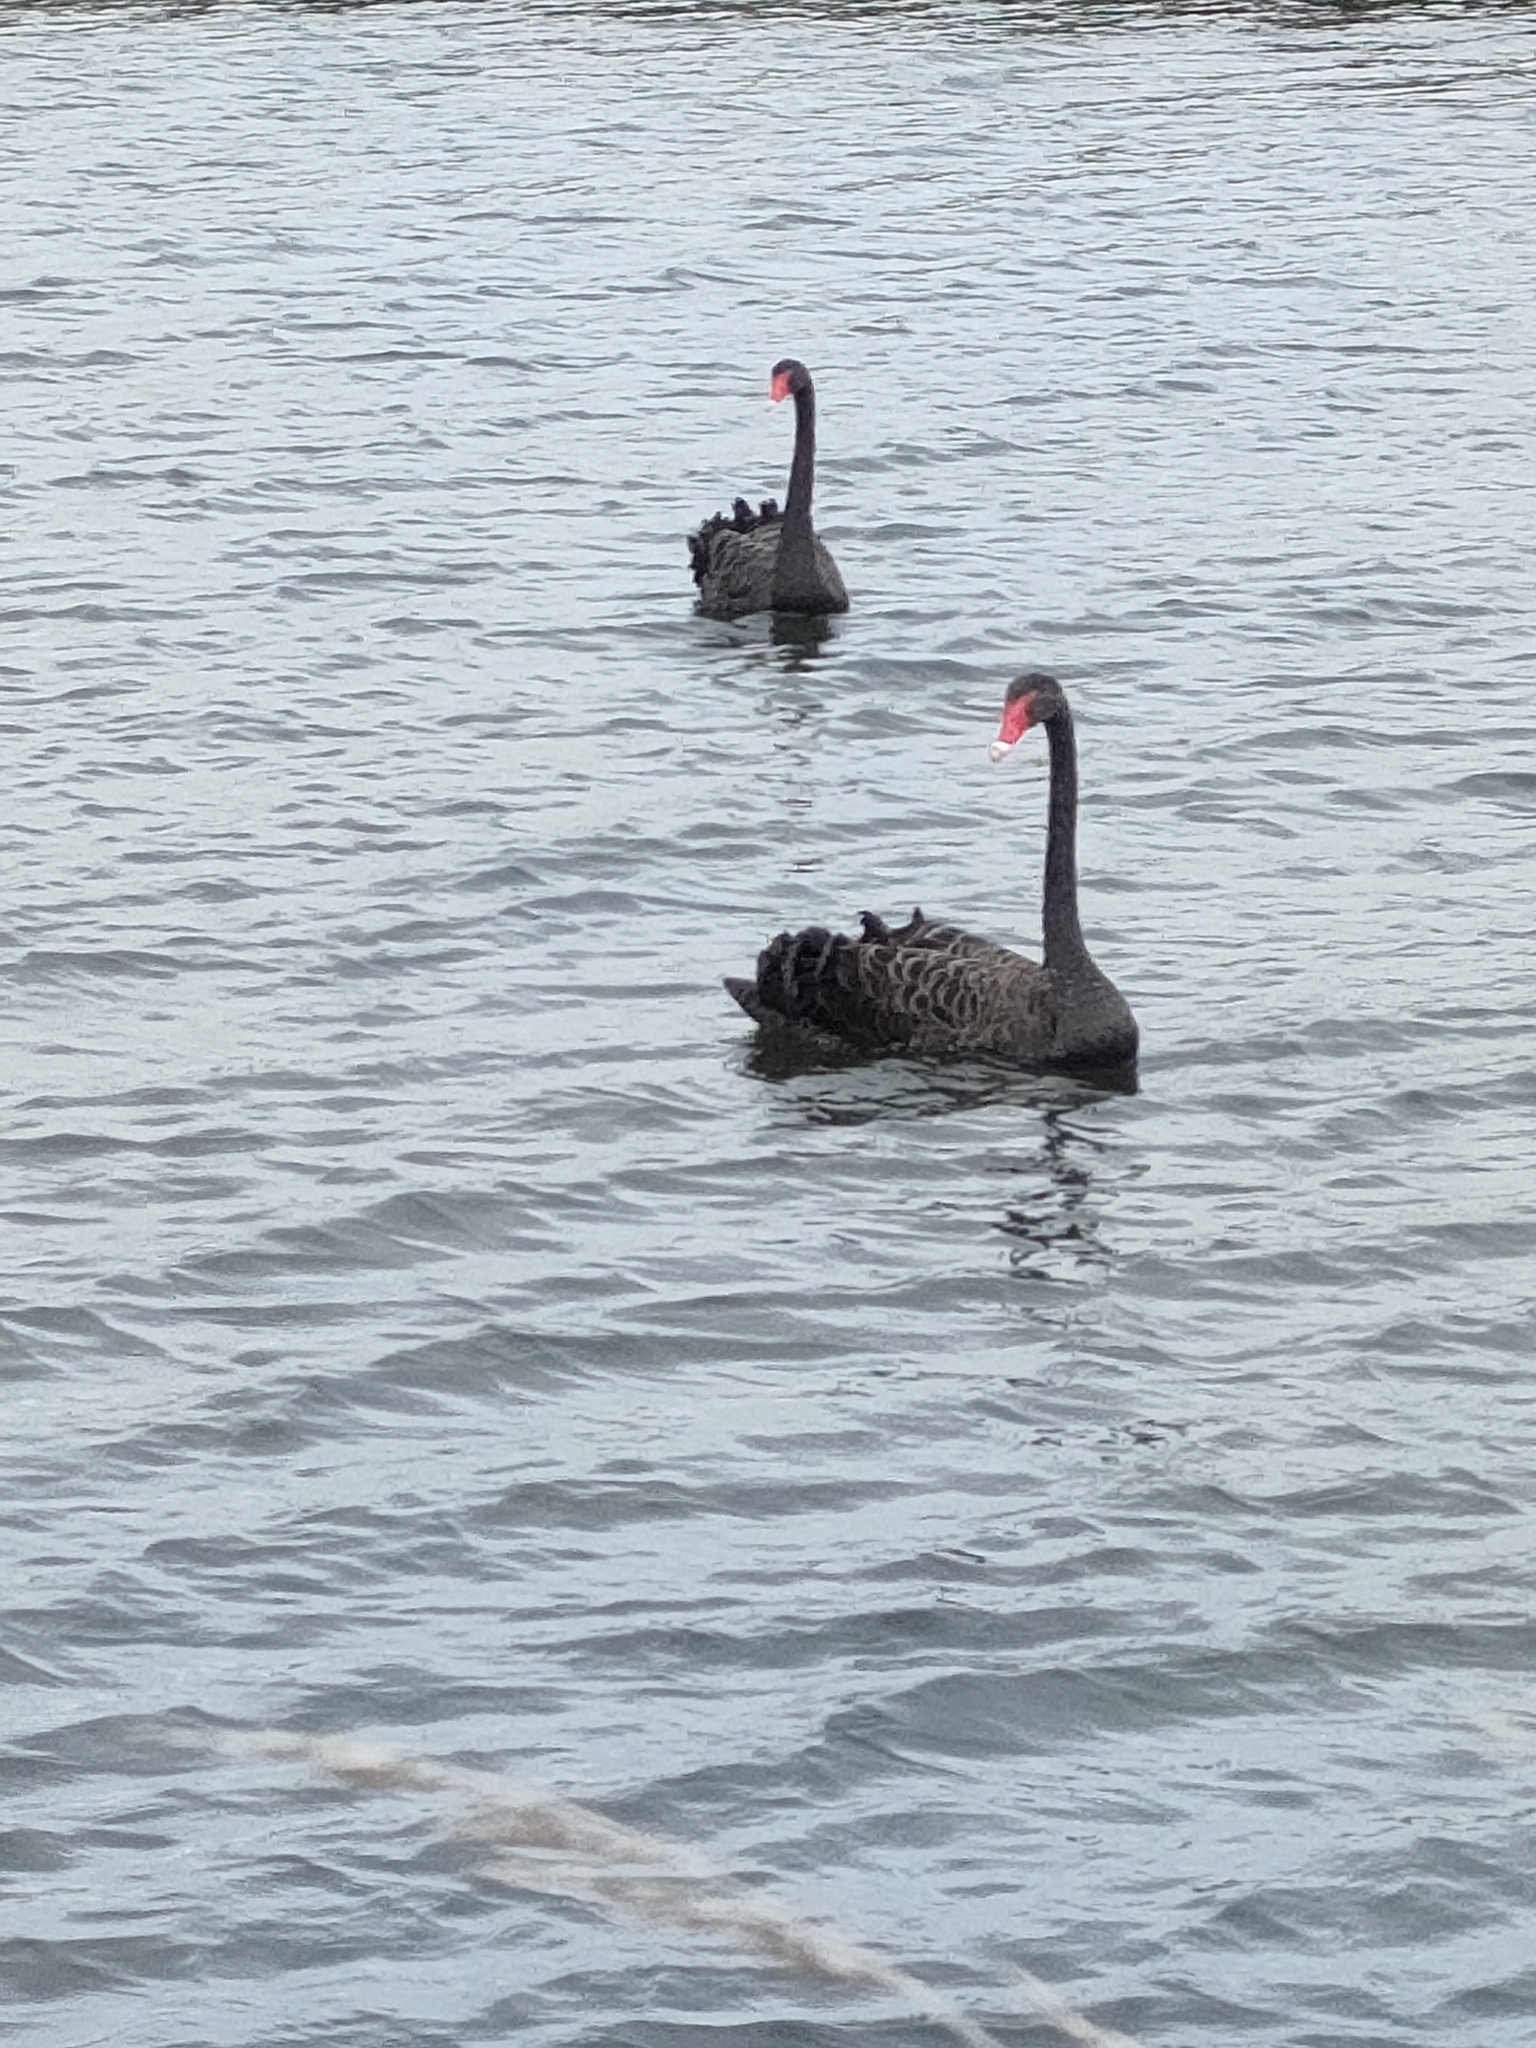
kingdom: Animalia
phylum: Chordata
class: Aves
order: Anseriformes
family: Anatidae
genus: Cygnus
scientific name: Cygnus atratus
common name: Black swan
